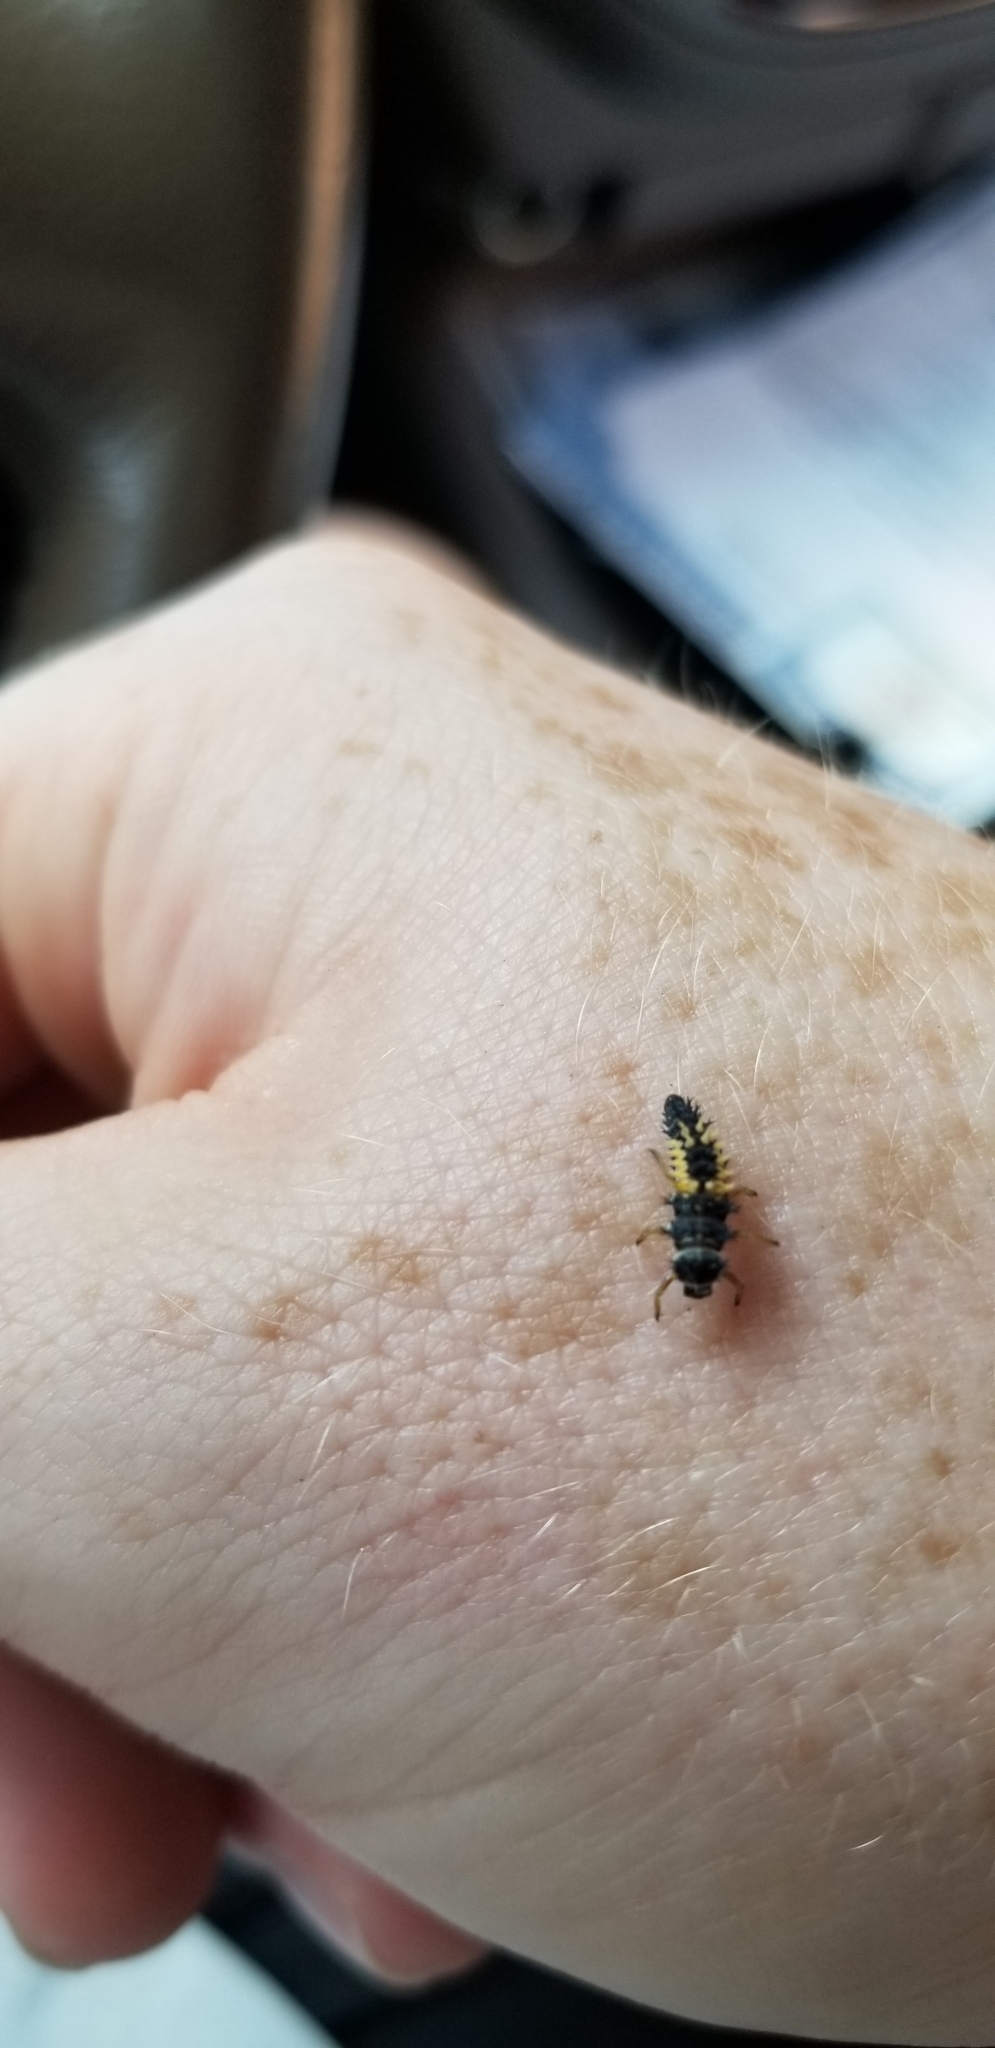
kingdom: Animalia
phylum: Arthropoda
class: Insecta
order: Coleoptera
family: Coccinellidae
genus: Harmonia
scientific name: Harmonia axyridis
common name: Harlequin ladybird
